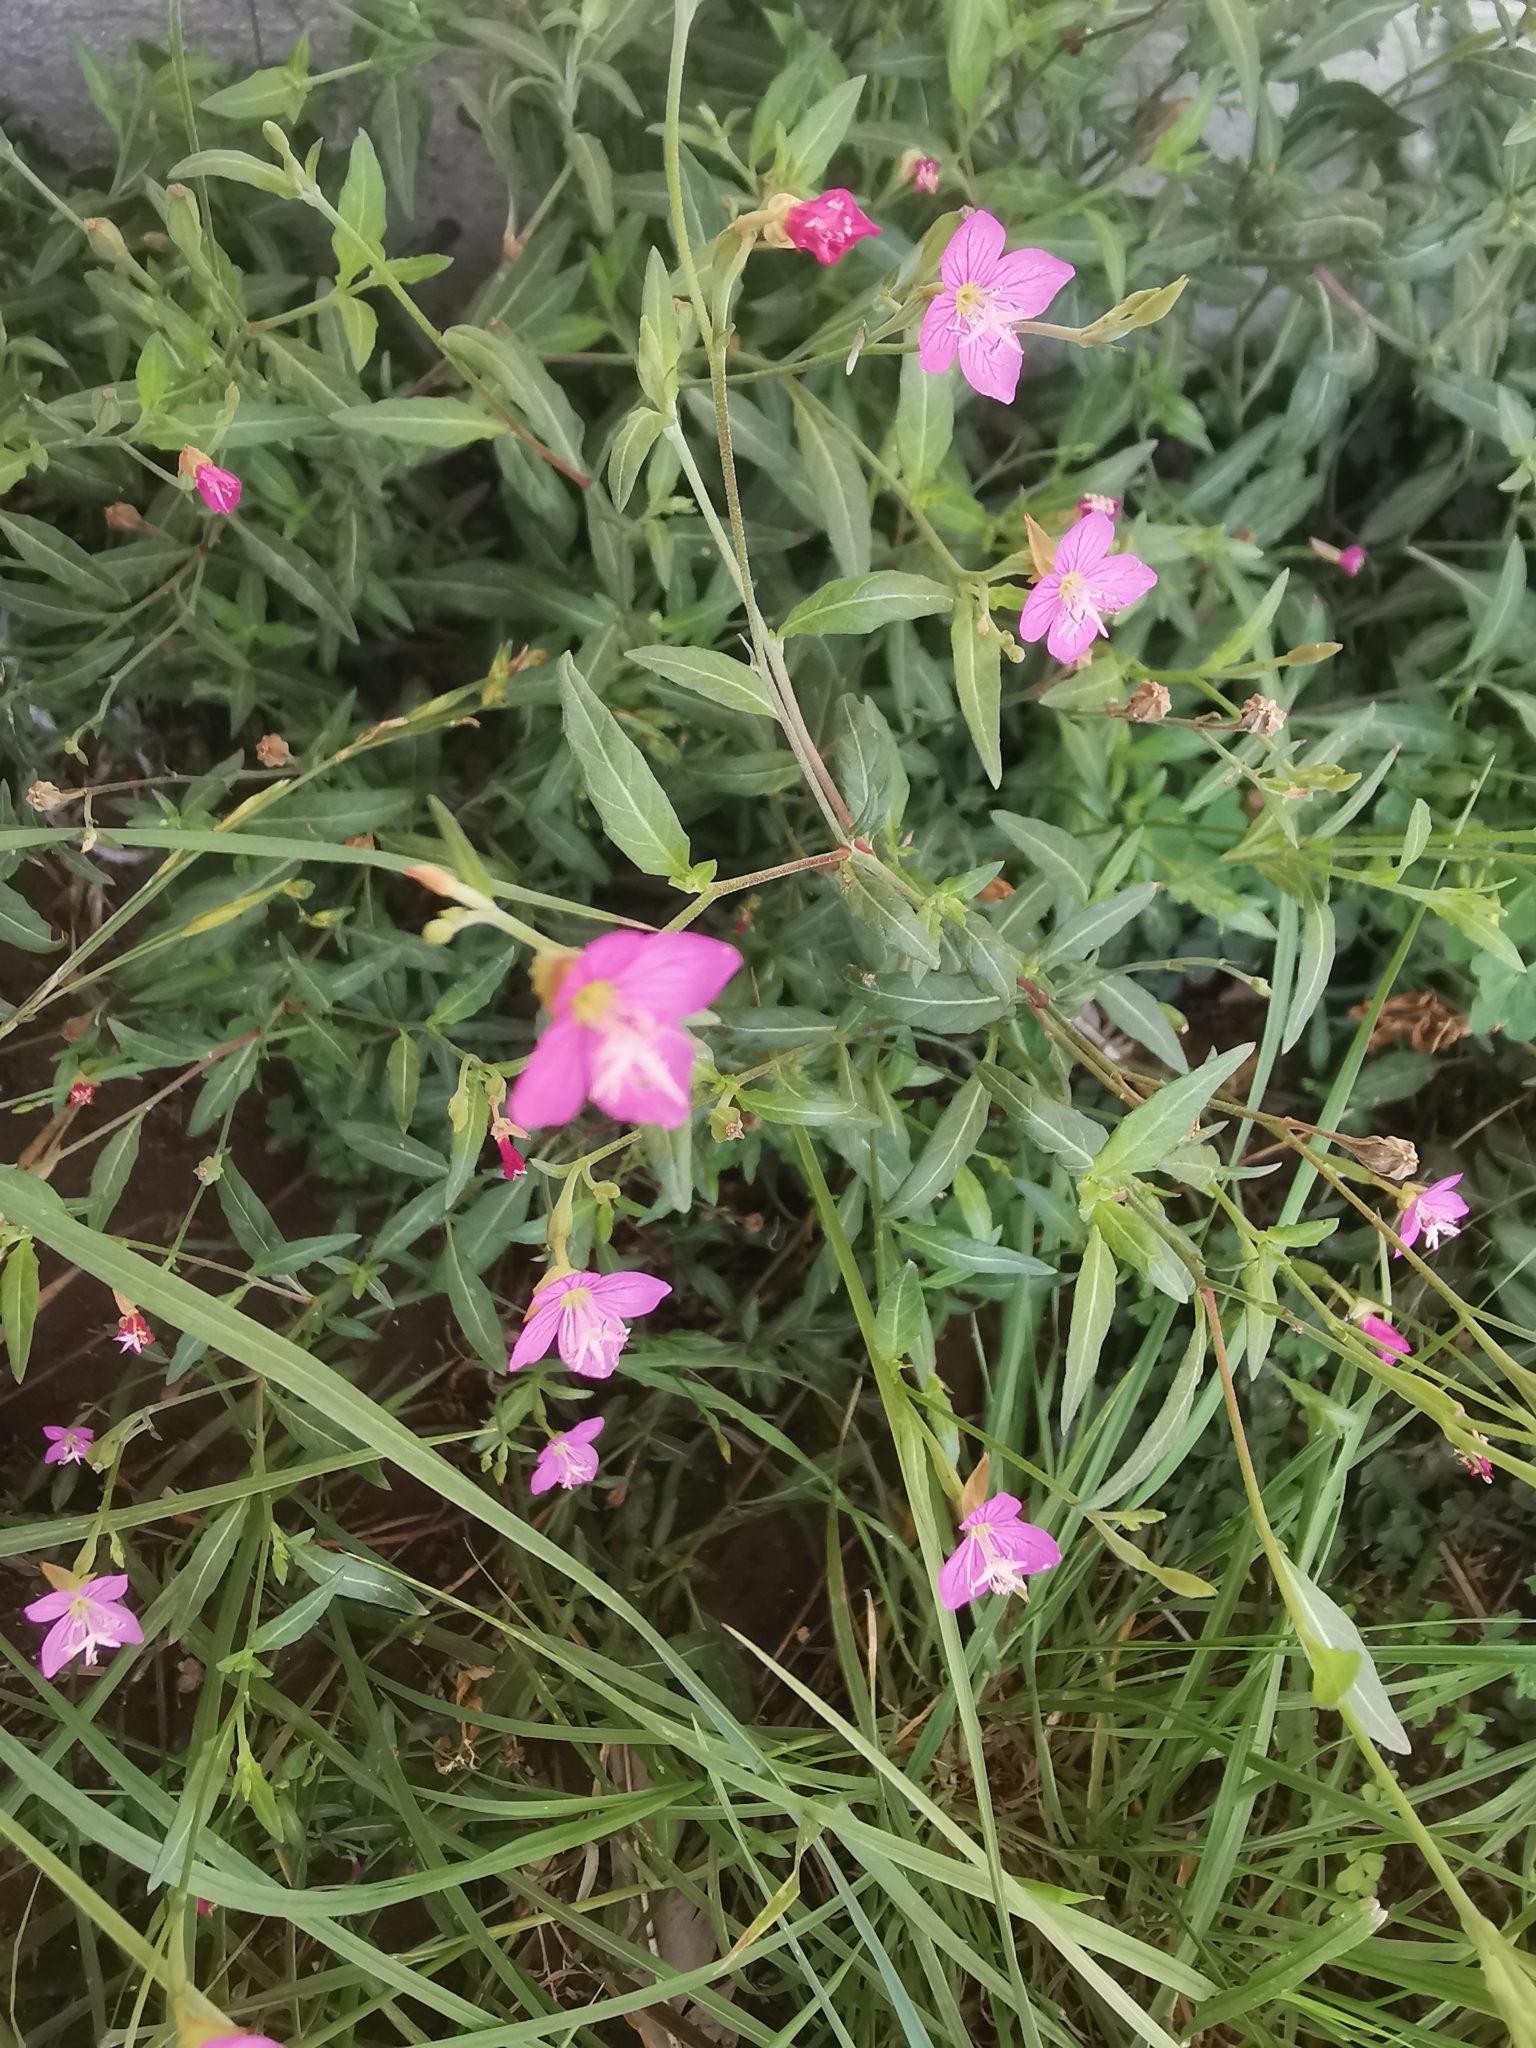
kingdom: Plantae
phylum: Tracheophyta
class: Magnoliopsida
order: Myrtales
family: Onagraceae
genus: Oenothera
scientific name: Oenothera rosea
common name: Rosy evening-primrose
